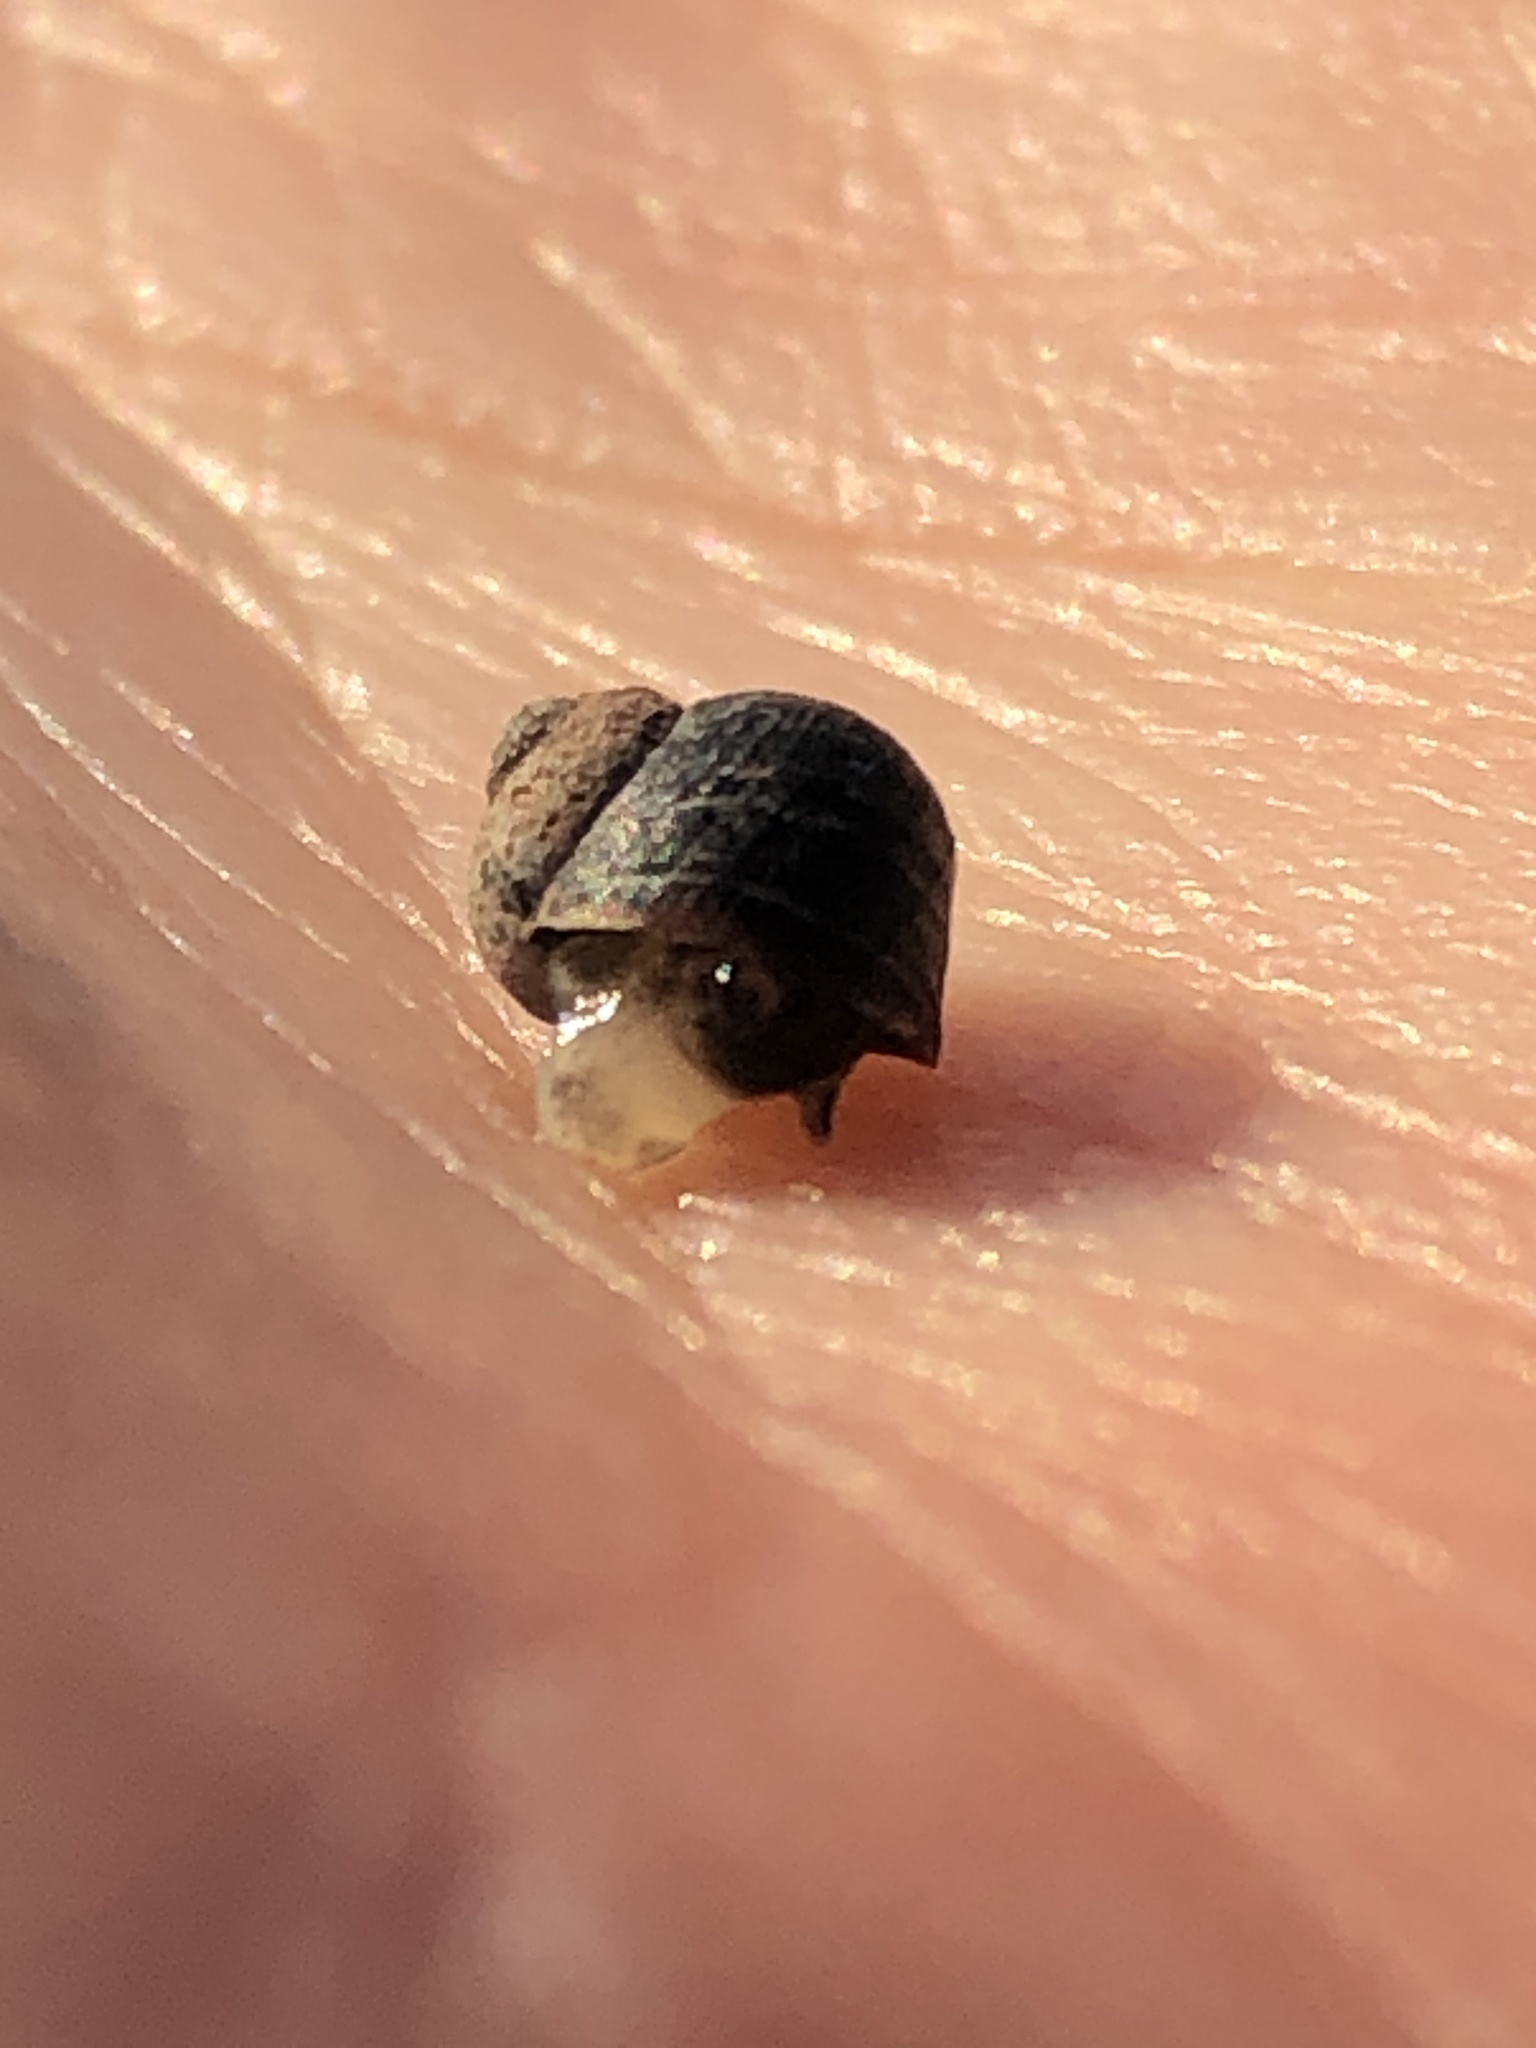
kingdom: Animalia
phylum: Mollusca
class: Gastropoda
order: Littorinimorpha
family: Littorinidae
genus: Littorina
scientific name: Littorina saxatilis
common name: Black-lined periwinkle
